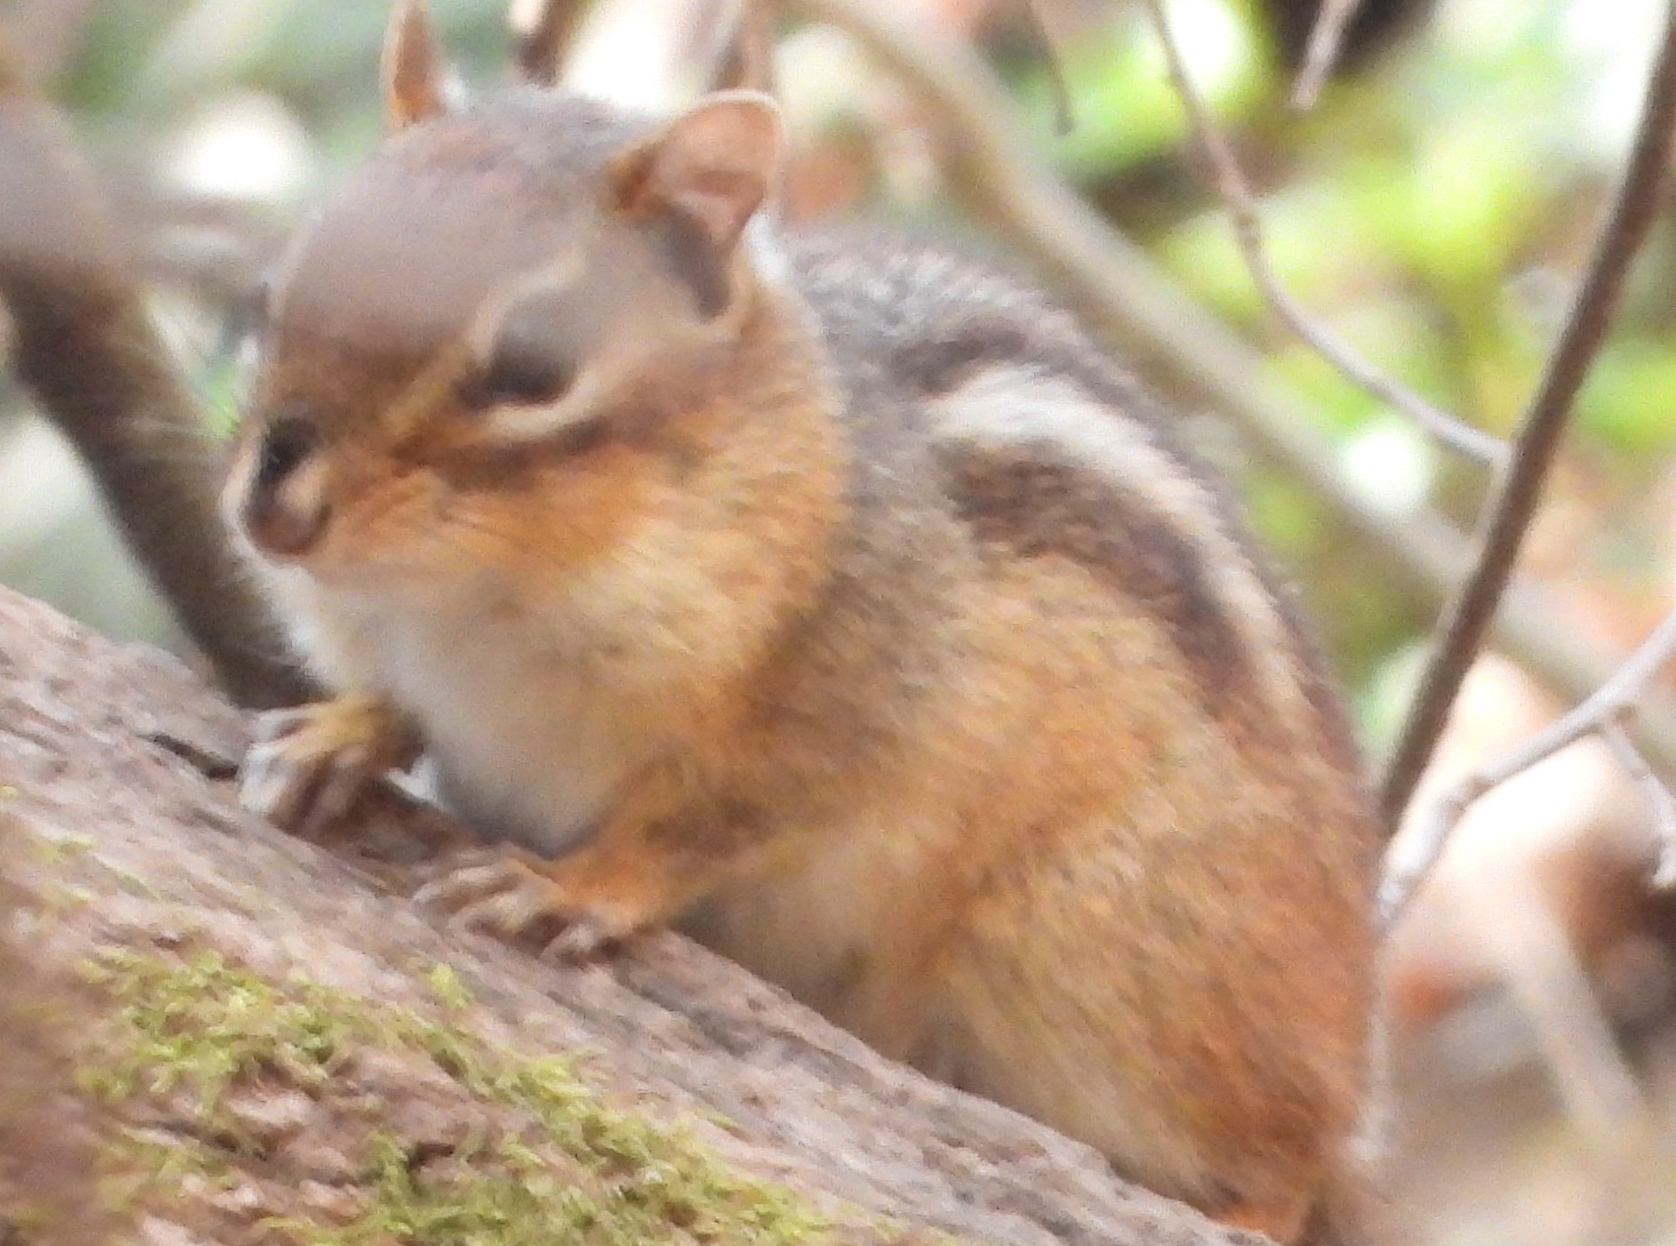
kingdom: Animalia
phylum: Chordata
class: Mammalia
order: Rodentia
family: Sciuridae
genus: Tamias
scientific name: Tamias striatus
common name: Eastern chipmunk
